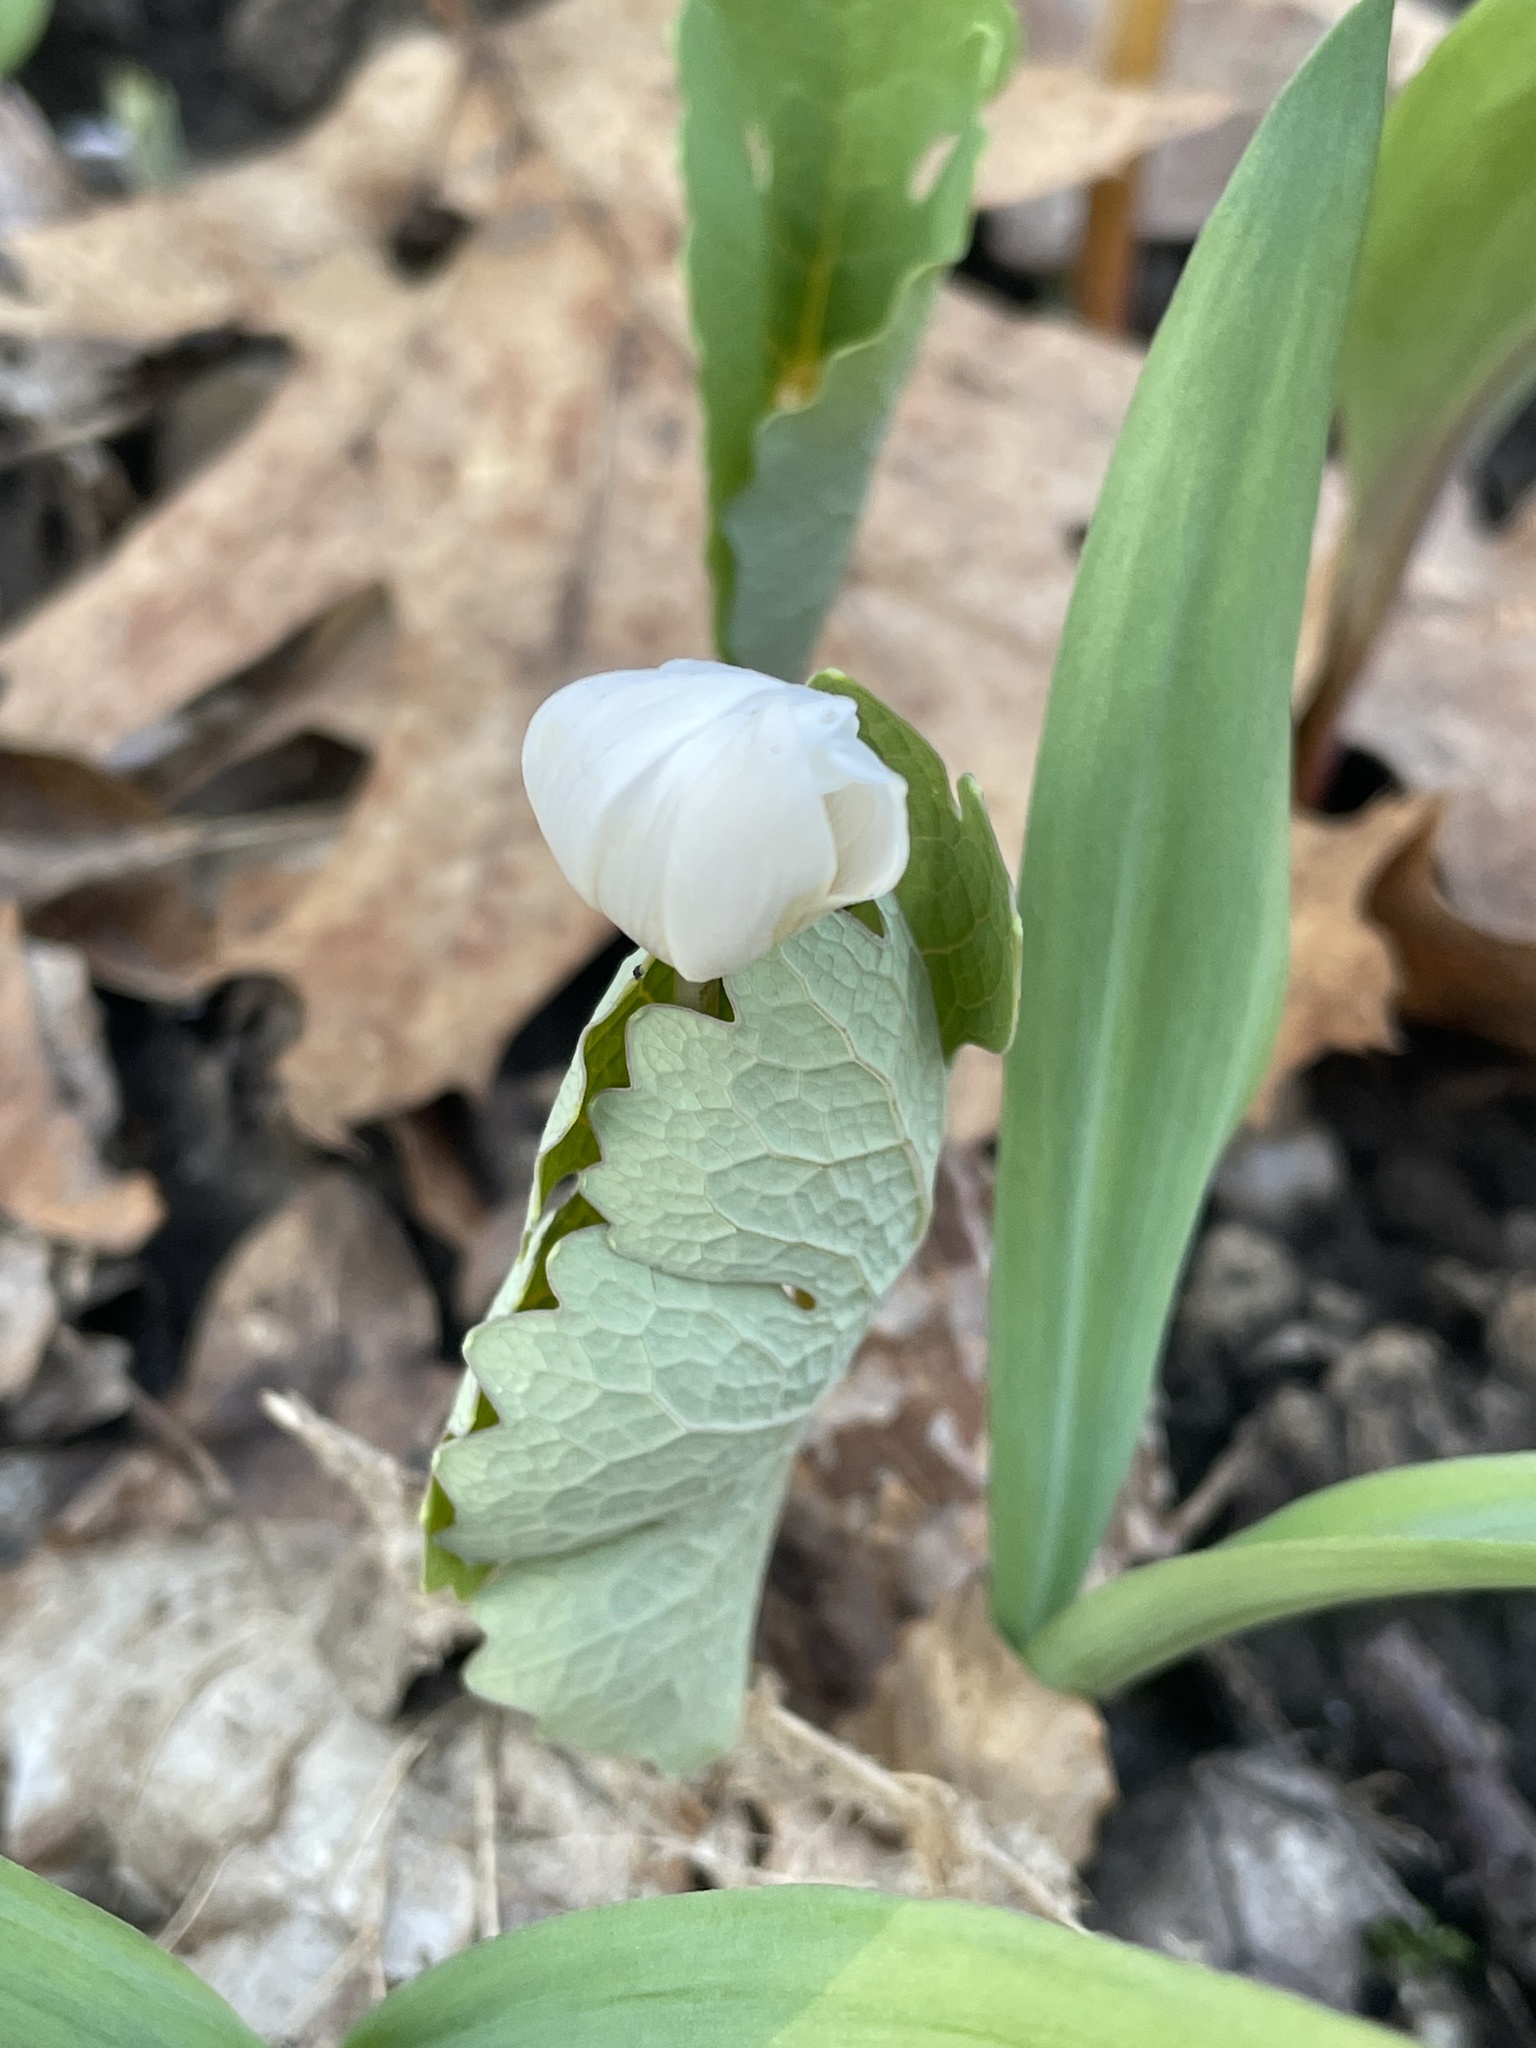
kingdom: Plantae
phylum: Tracheophyta
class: Magnoliopsida
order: Ranunculales
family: Papaveraceae
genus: Sanguinaria
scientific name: Sanguinaria canadensis
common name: Bloodroot
